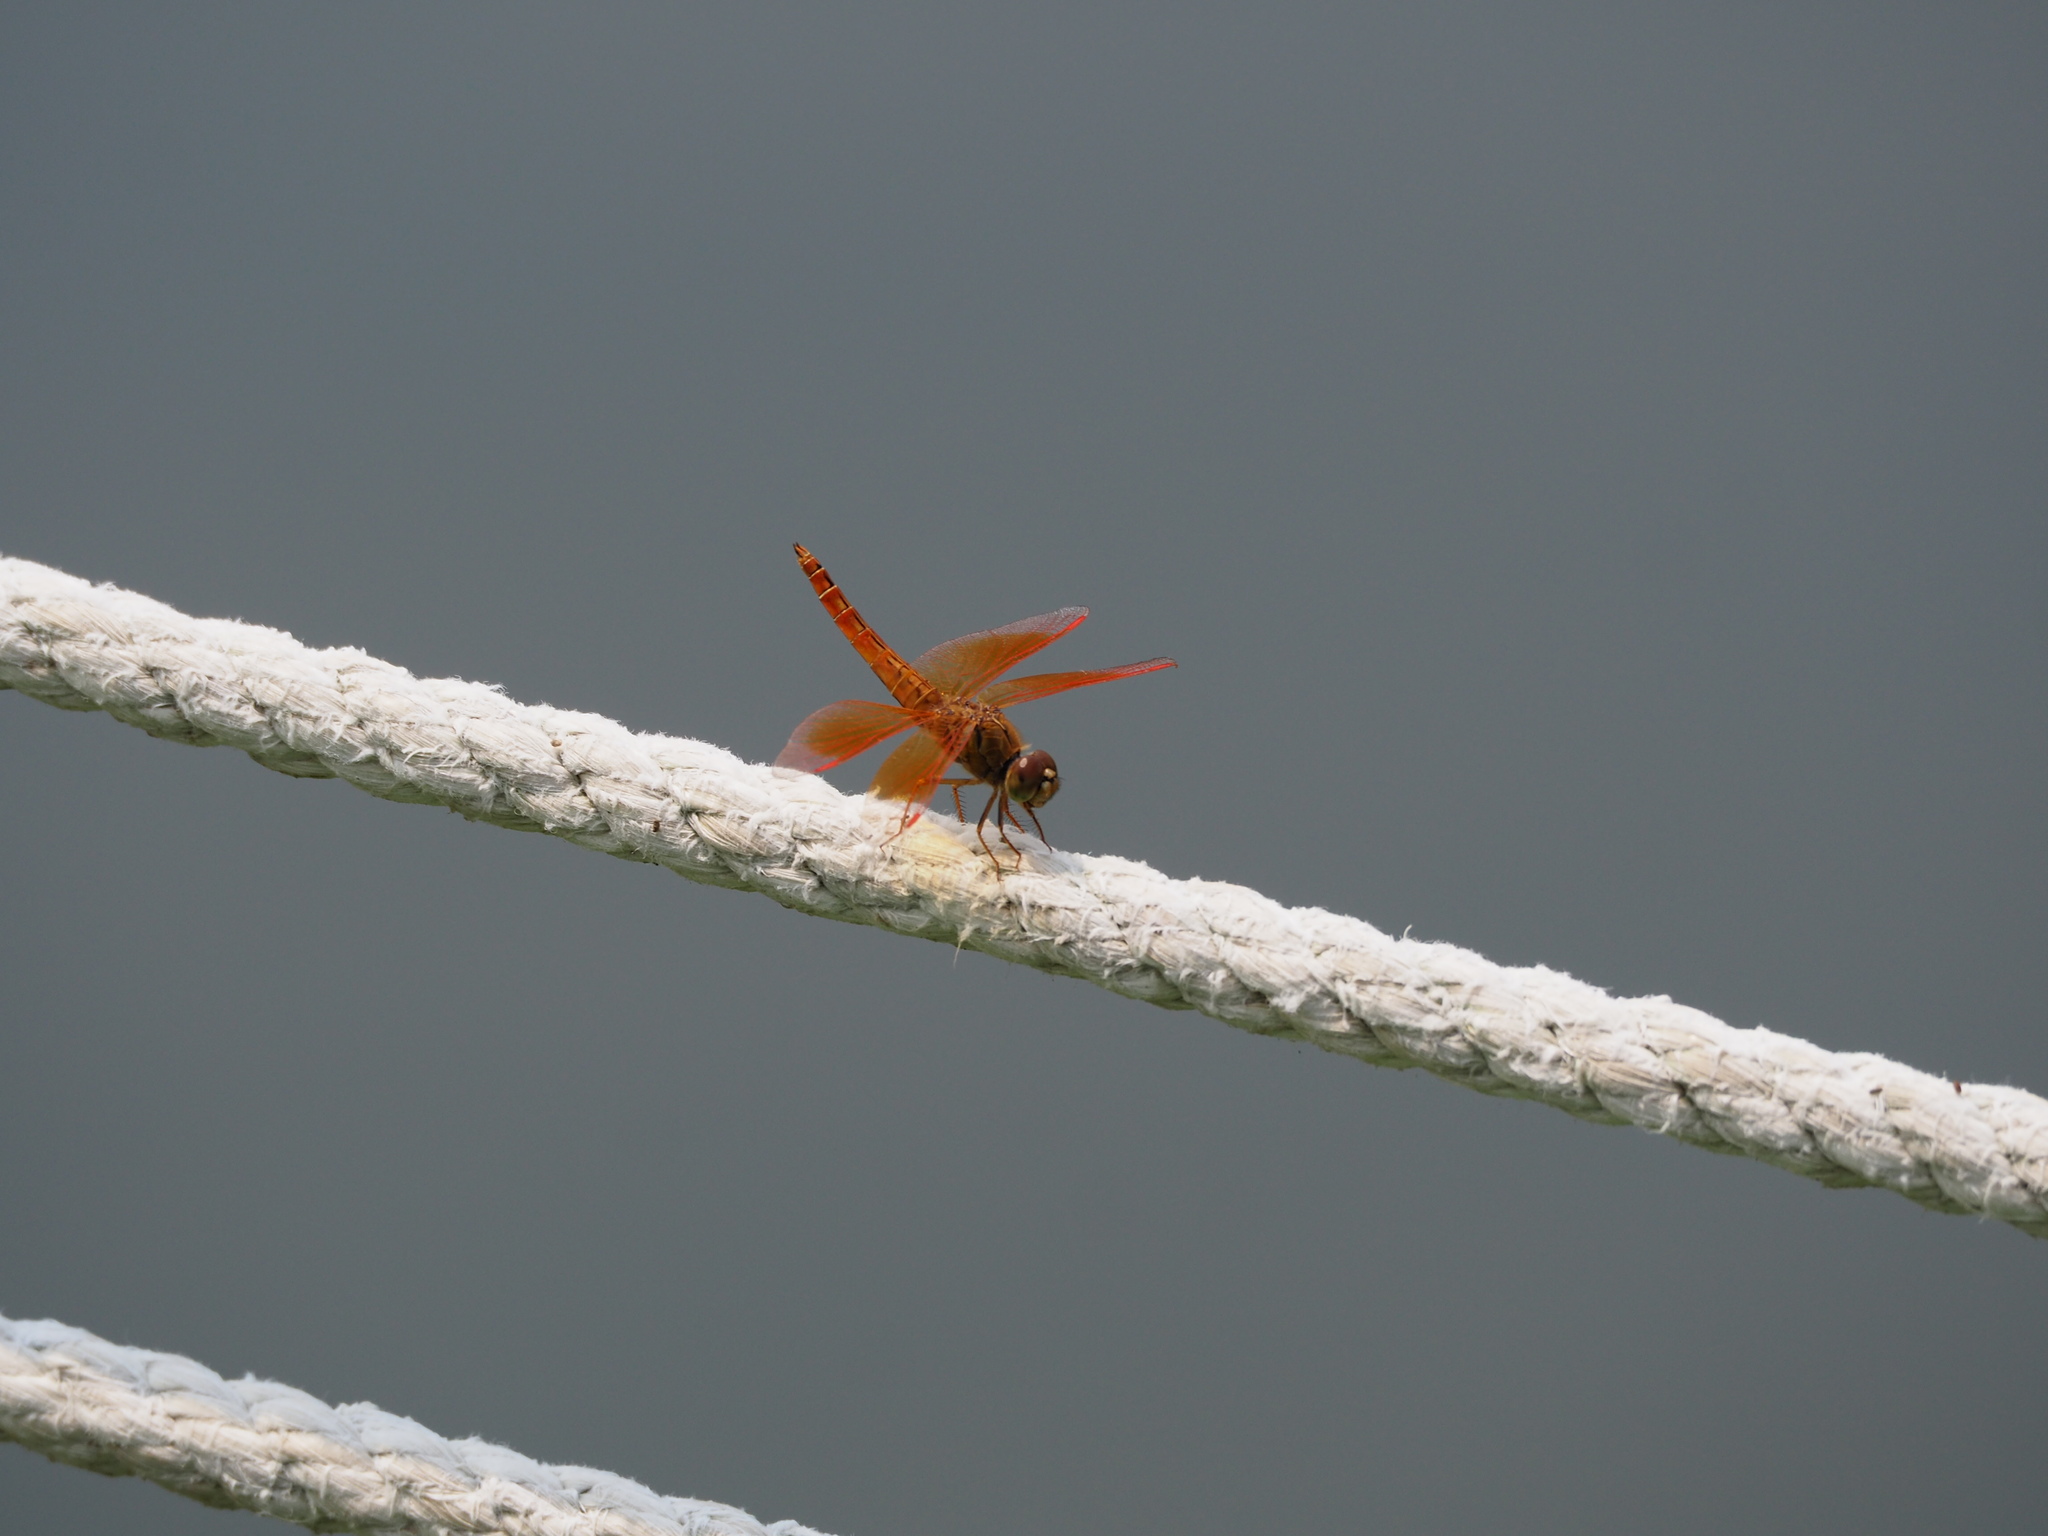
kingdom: Animalia
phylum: Arthropoda
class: Insecta
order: Odonata
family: Libellulidae
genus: Brachythemis
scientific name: Brachythemis contaminata
